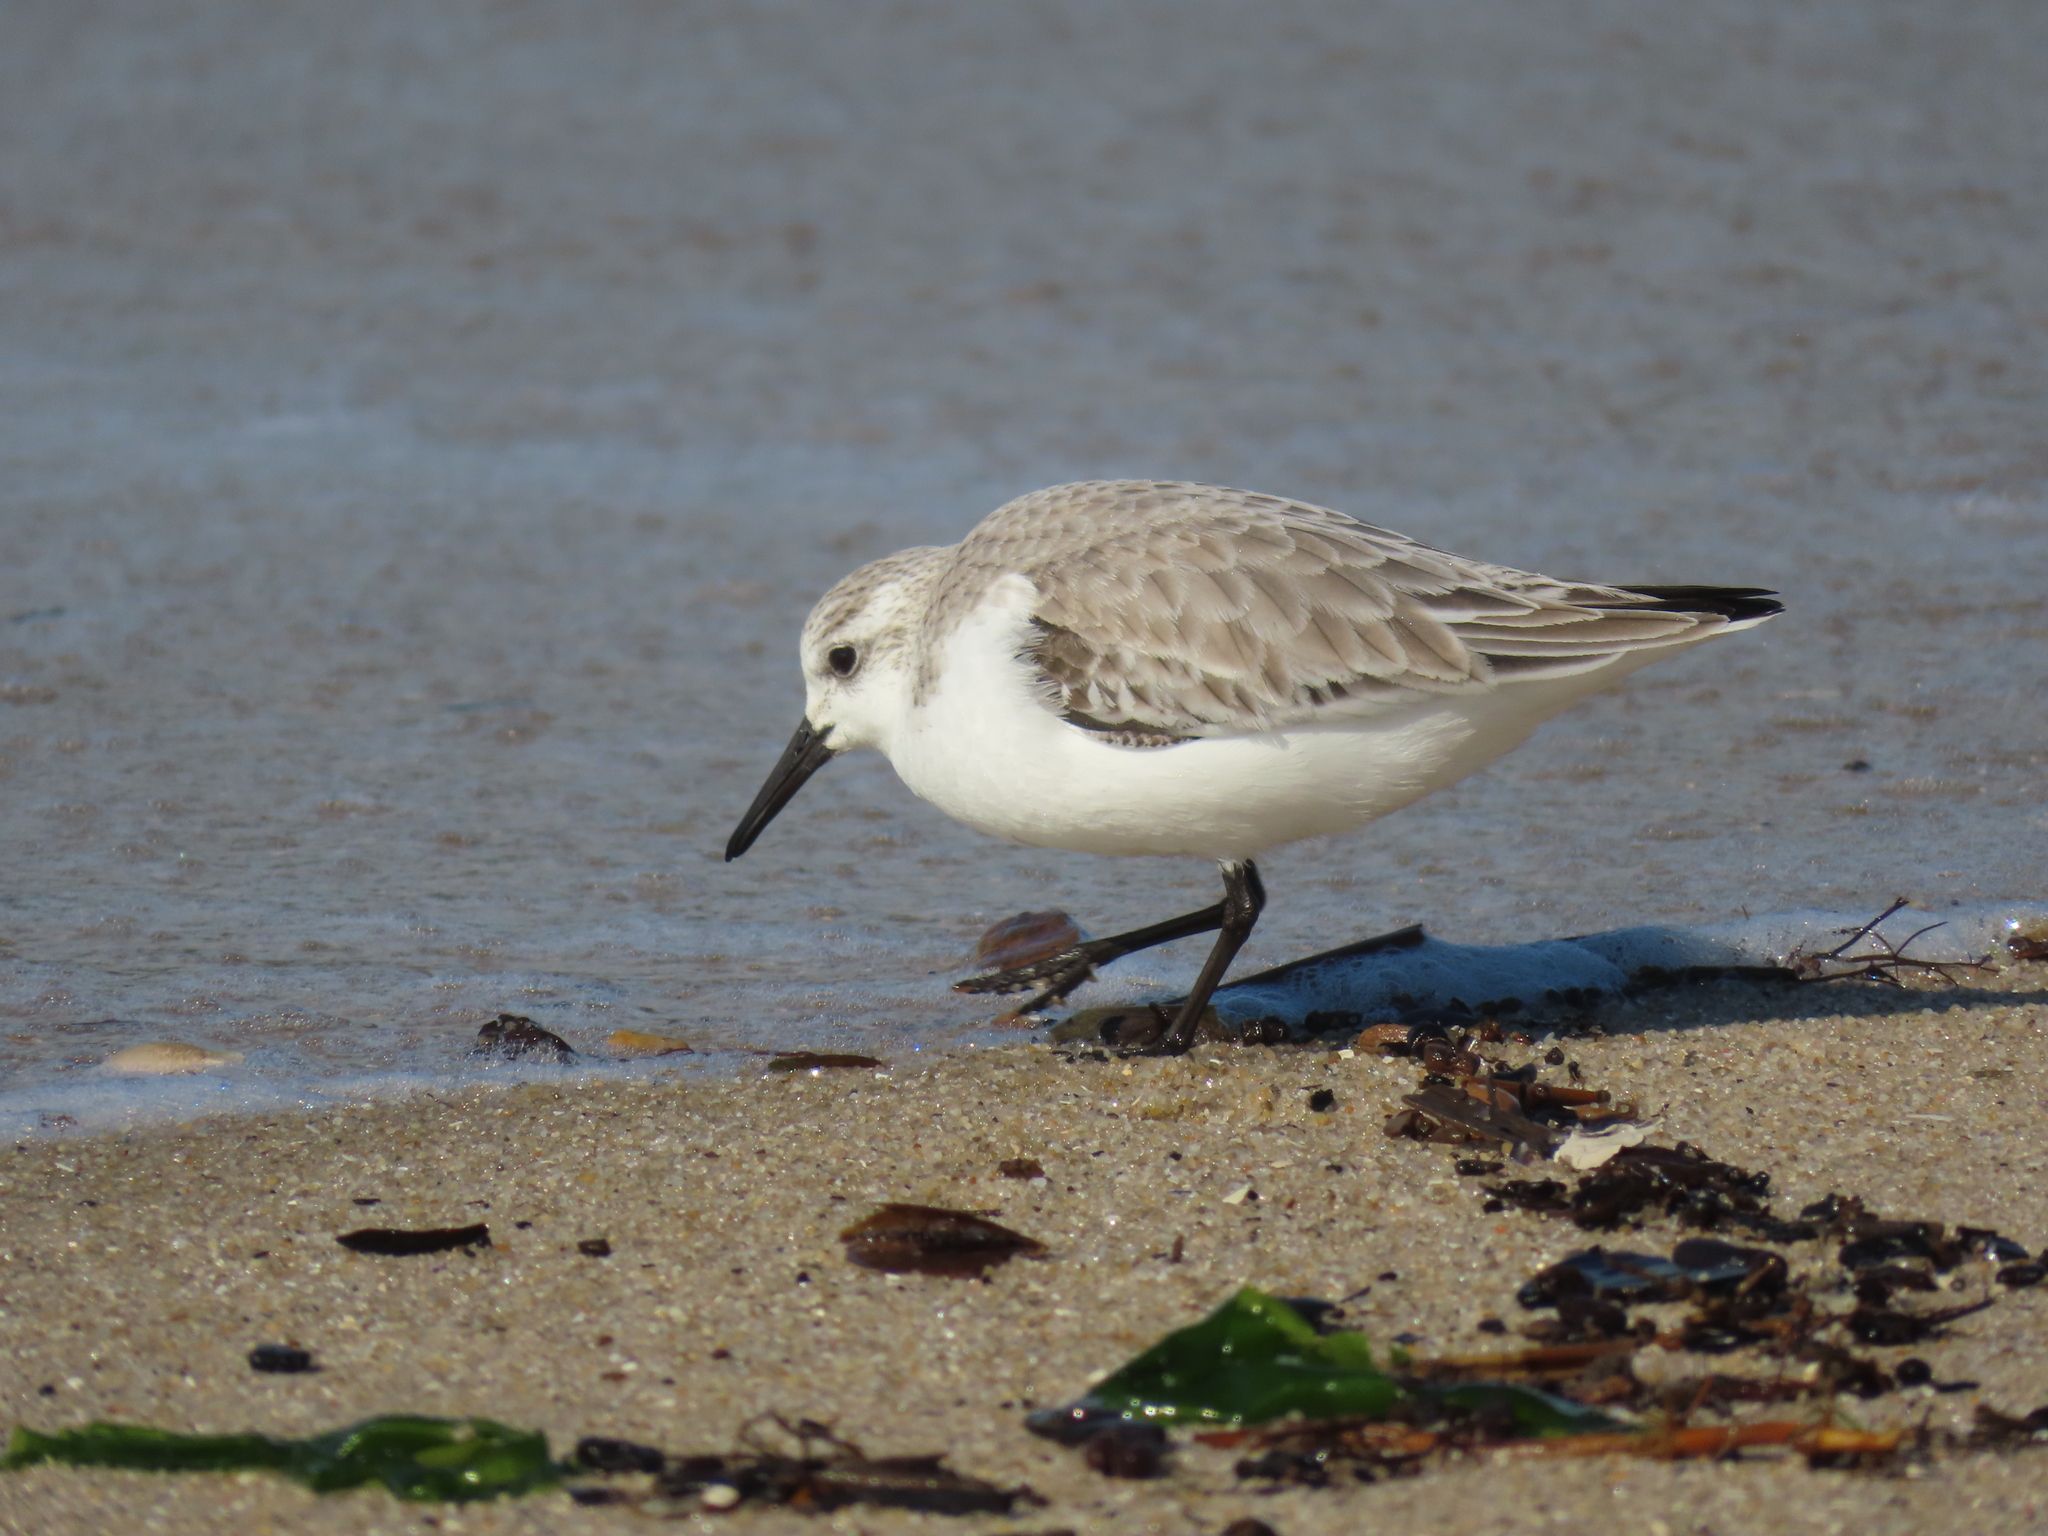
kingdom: Animalia
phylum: Chordata
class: Aves
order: Charadriiformes
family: Scolopacidae
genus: Calidris
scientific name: Calidris alba
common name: Sanderling
